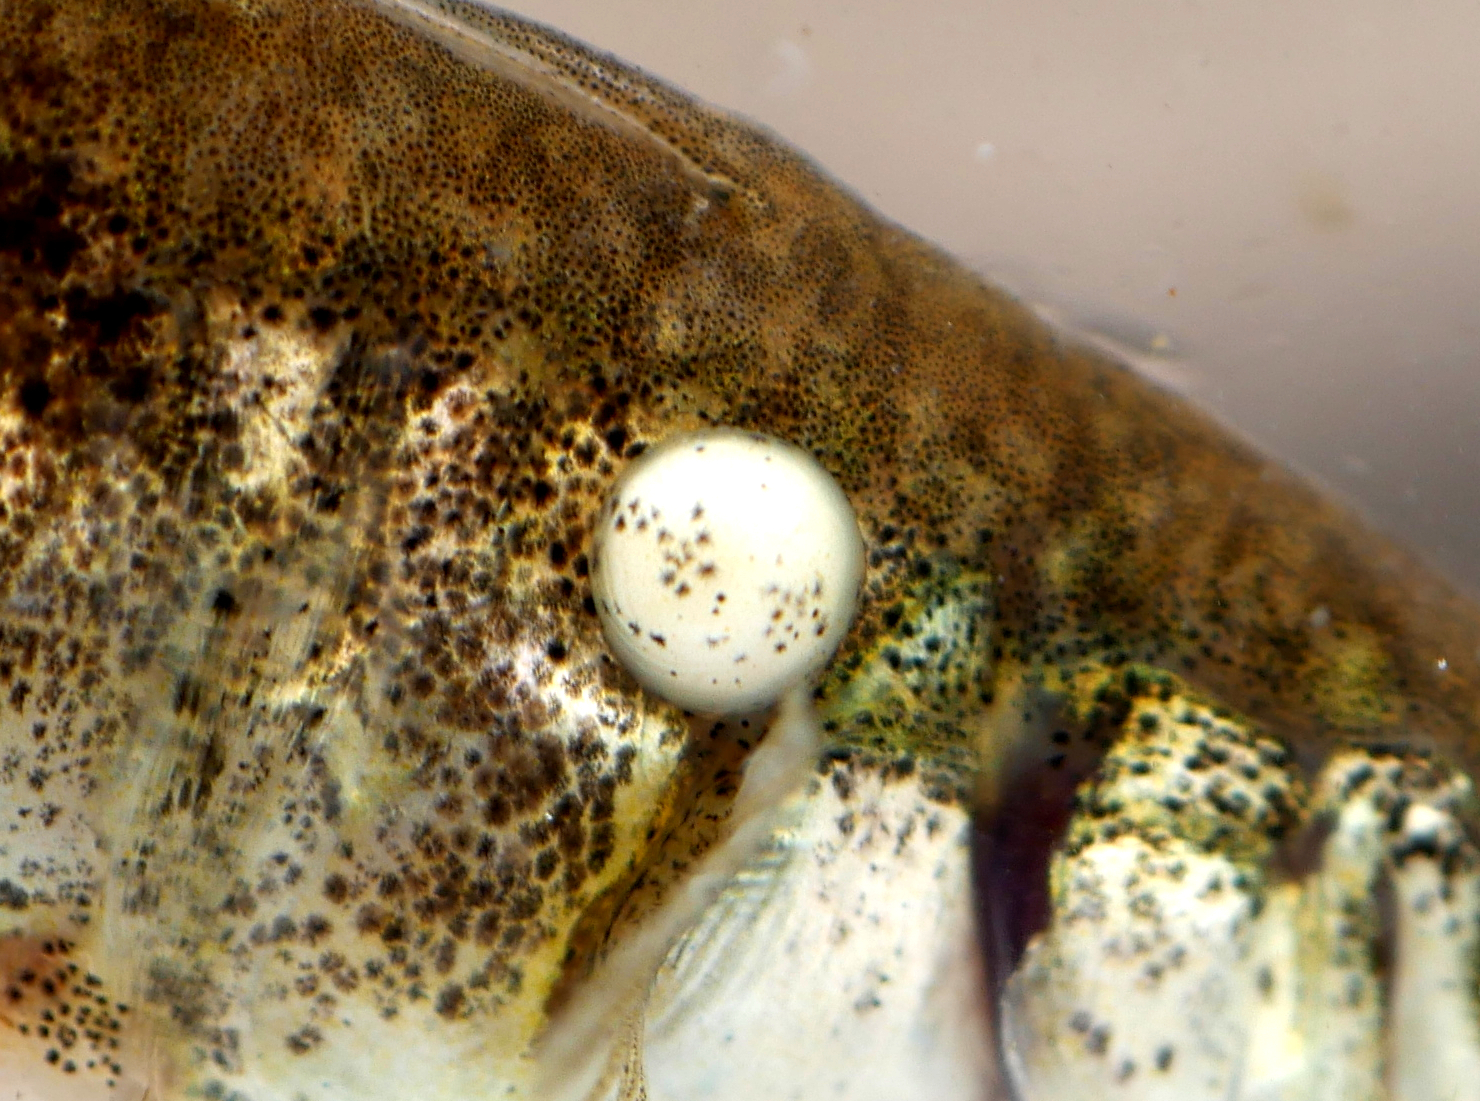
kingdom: Protozoa
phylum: Microsporidia
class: Microsporea
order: Glugeida
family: Glugeidae
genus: Glugea
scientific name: Glugea anomala
